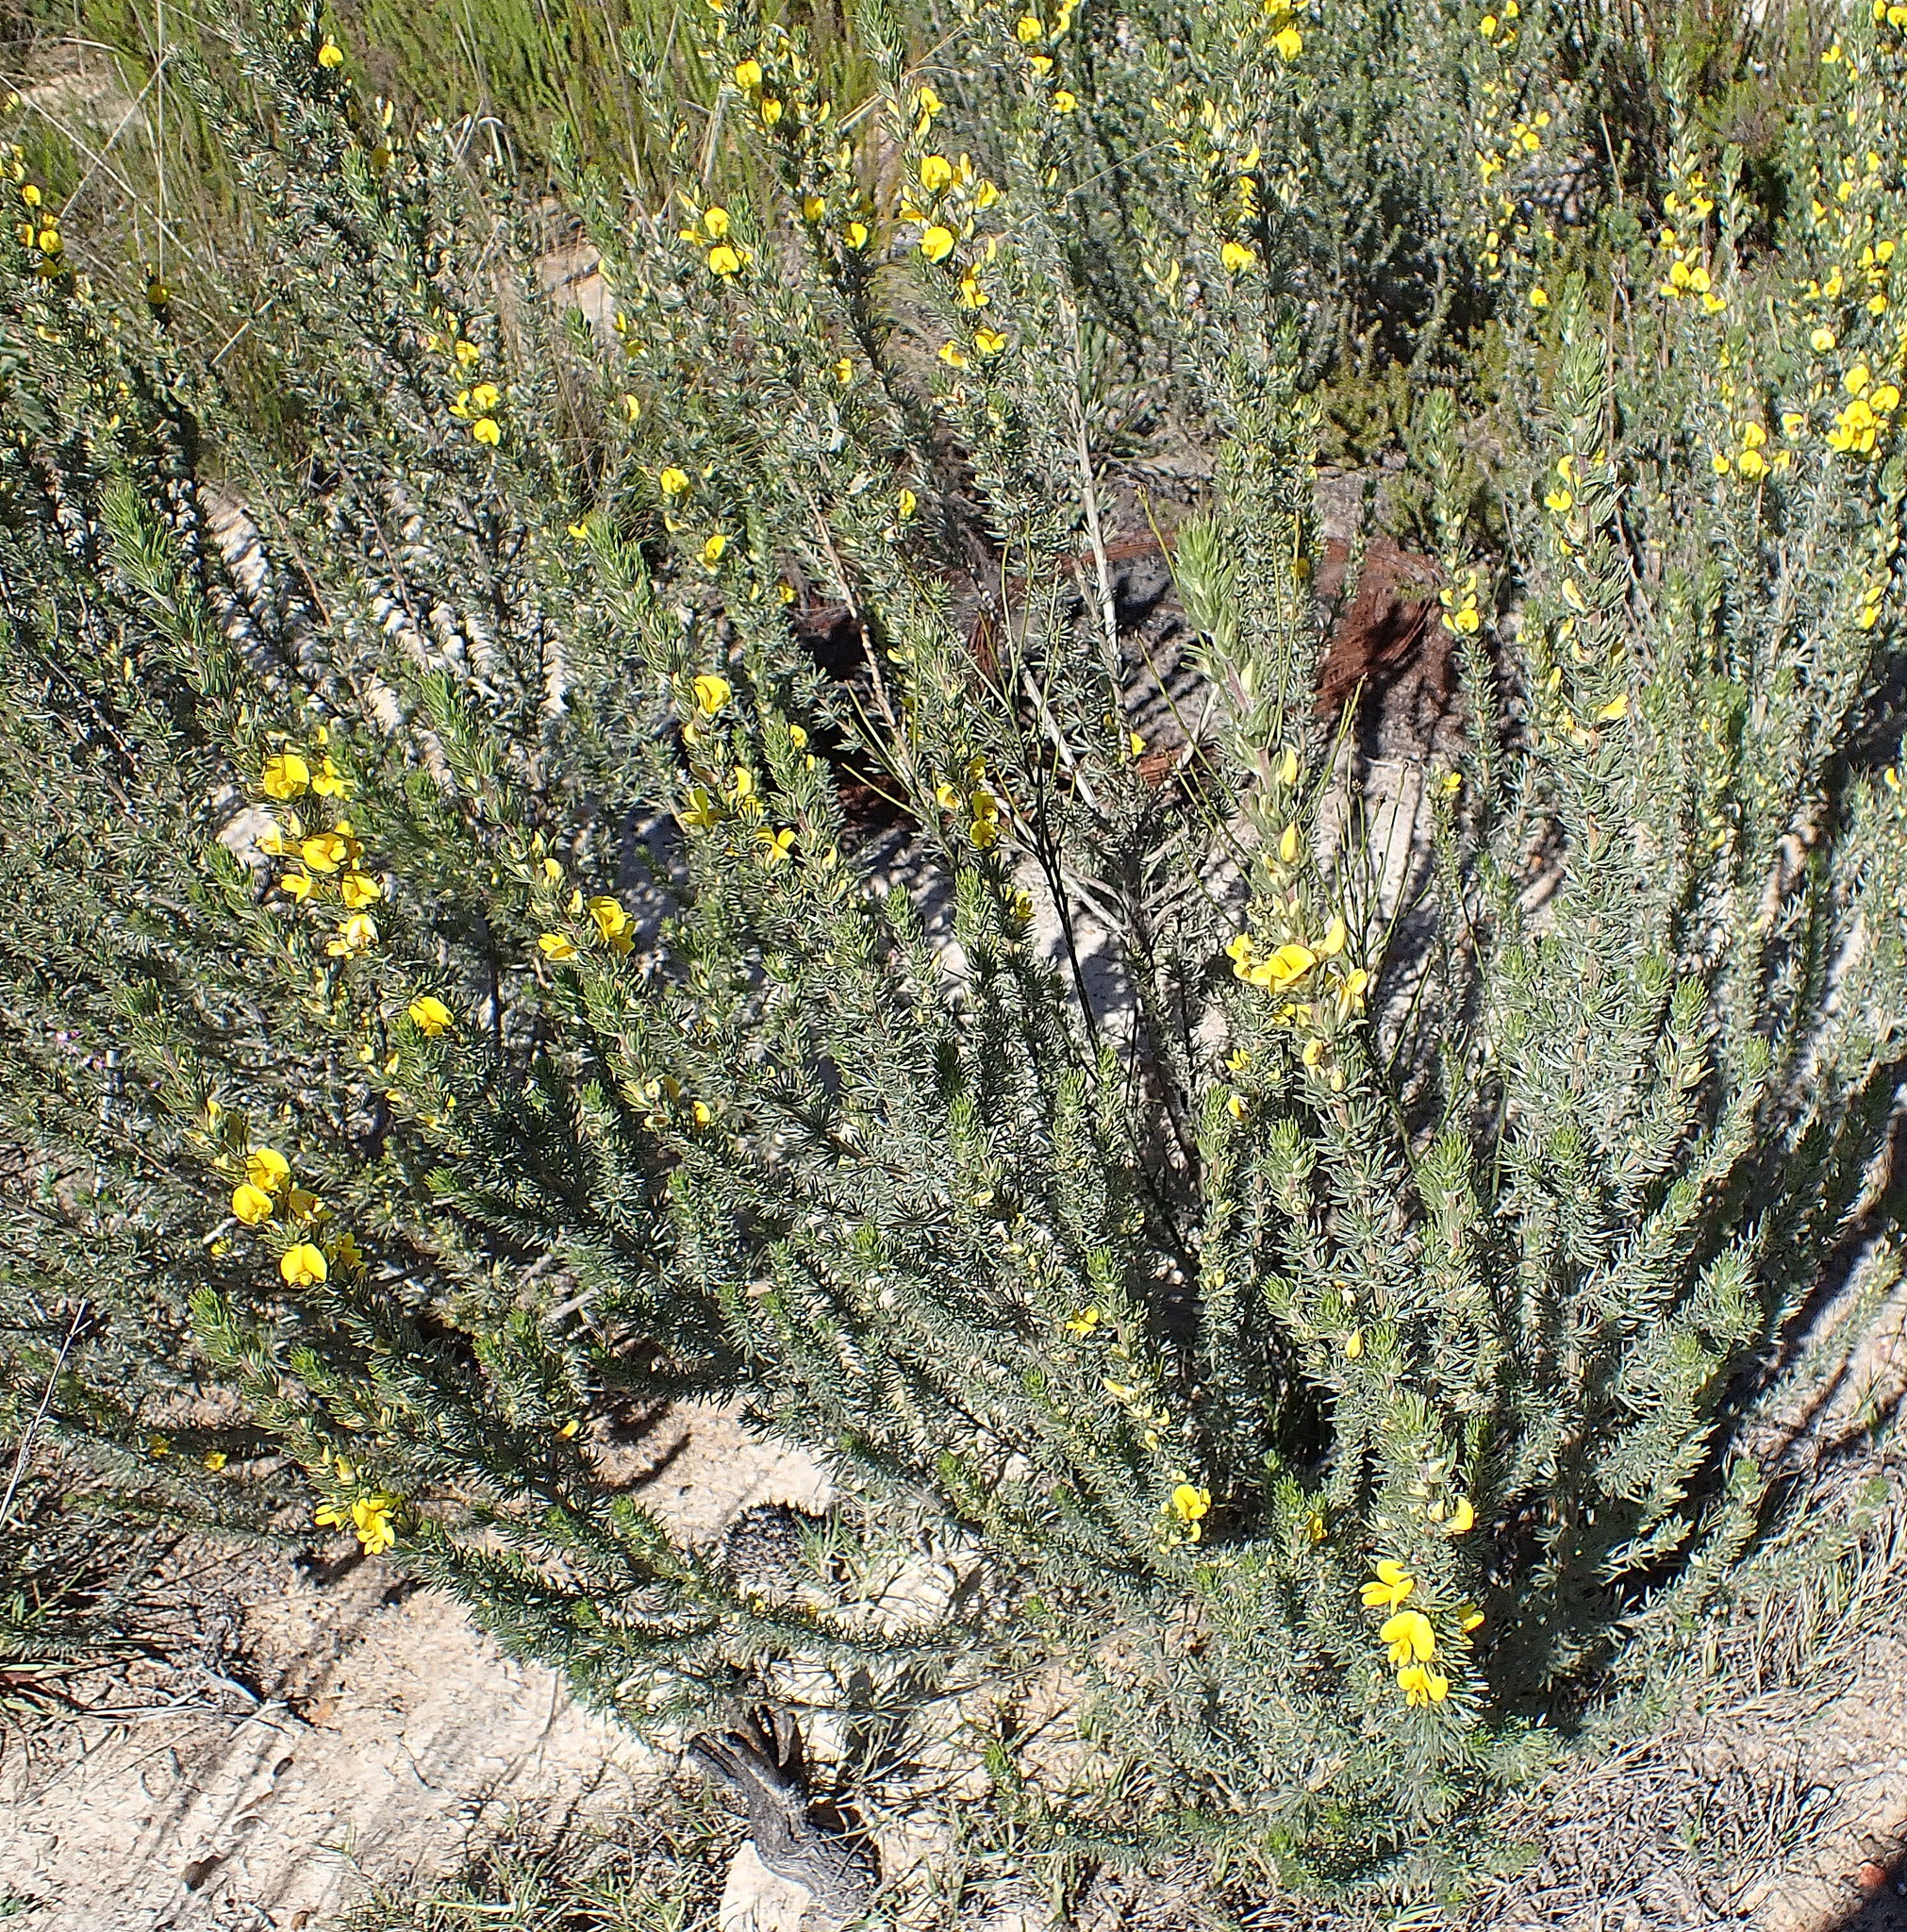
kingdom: Plantae
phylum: Tracheophyta
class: Magnoliopsida
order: Fabales
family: Fabaceae
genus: Aspalathus
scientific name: Aspalathus glabrescens
